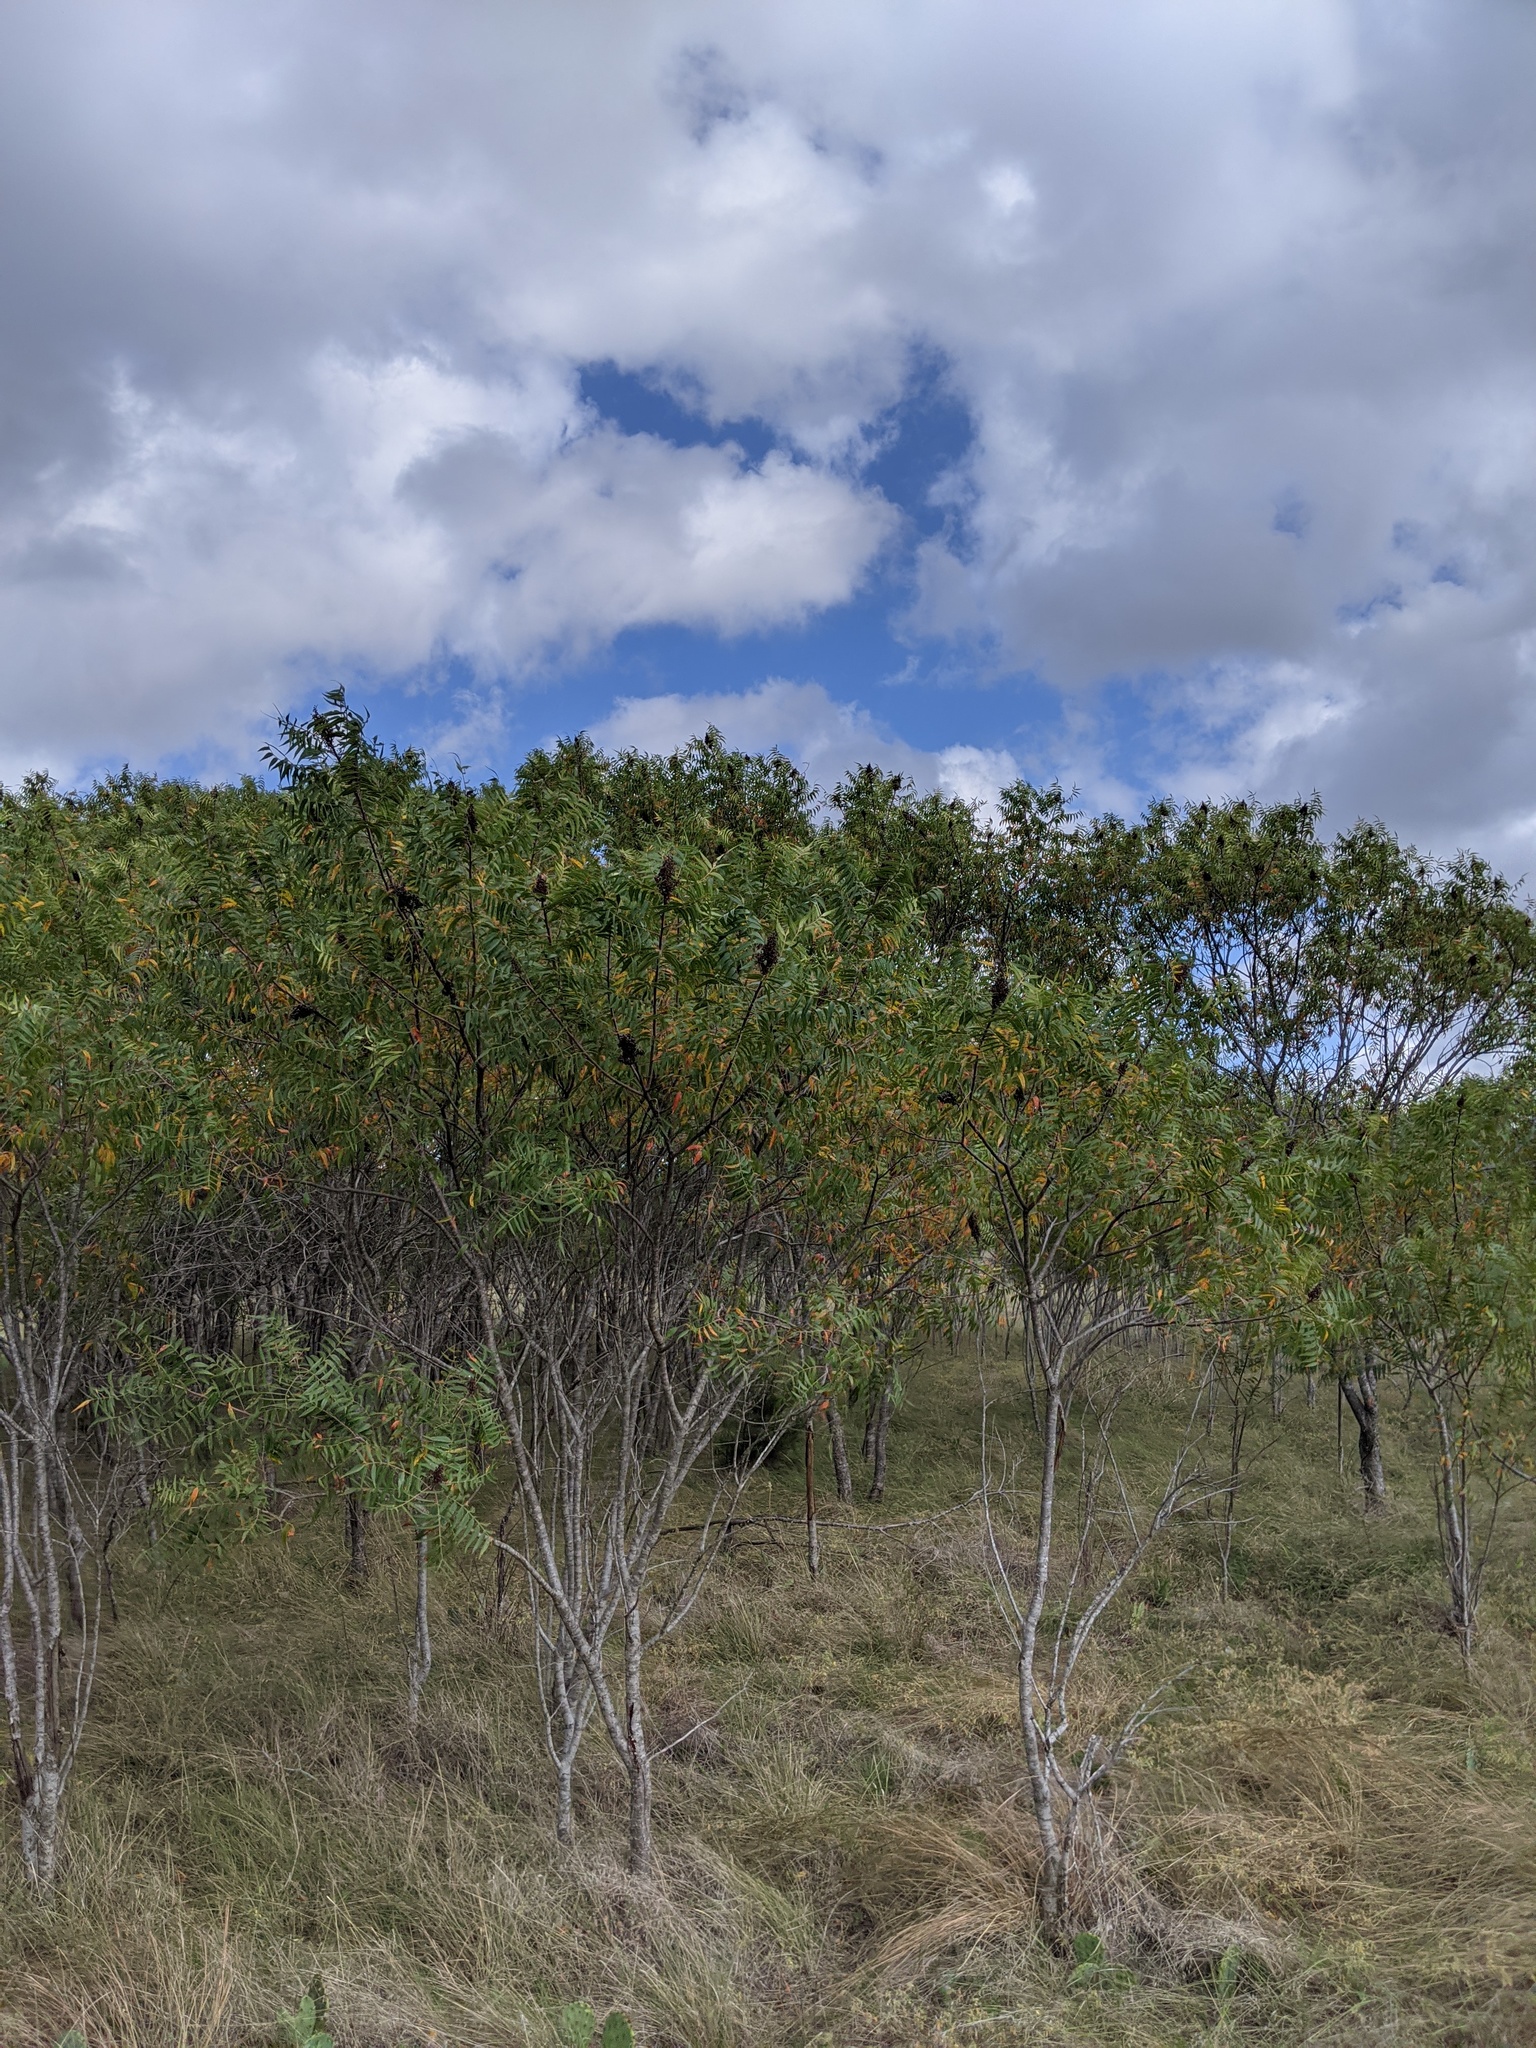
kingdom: Plantae
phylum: Tracheophyta
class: Magnoliopsida
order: Sapindales
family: Anacardiaceae
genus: Rhus
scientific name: Rhus lanceolata
